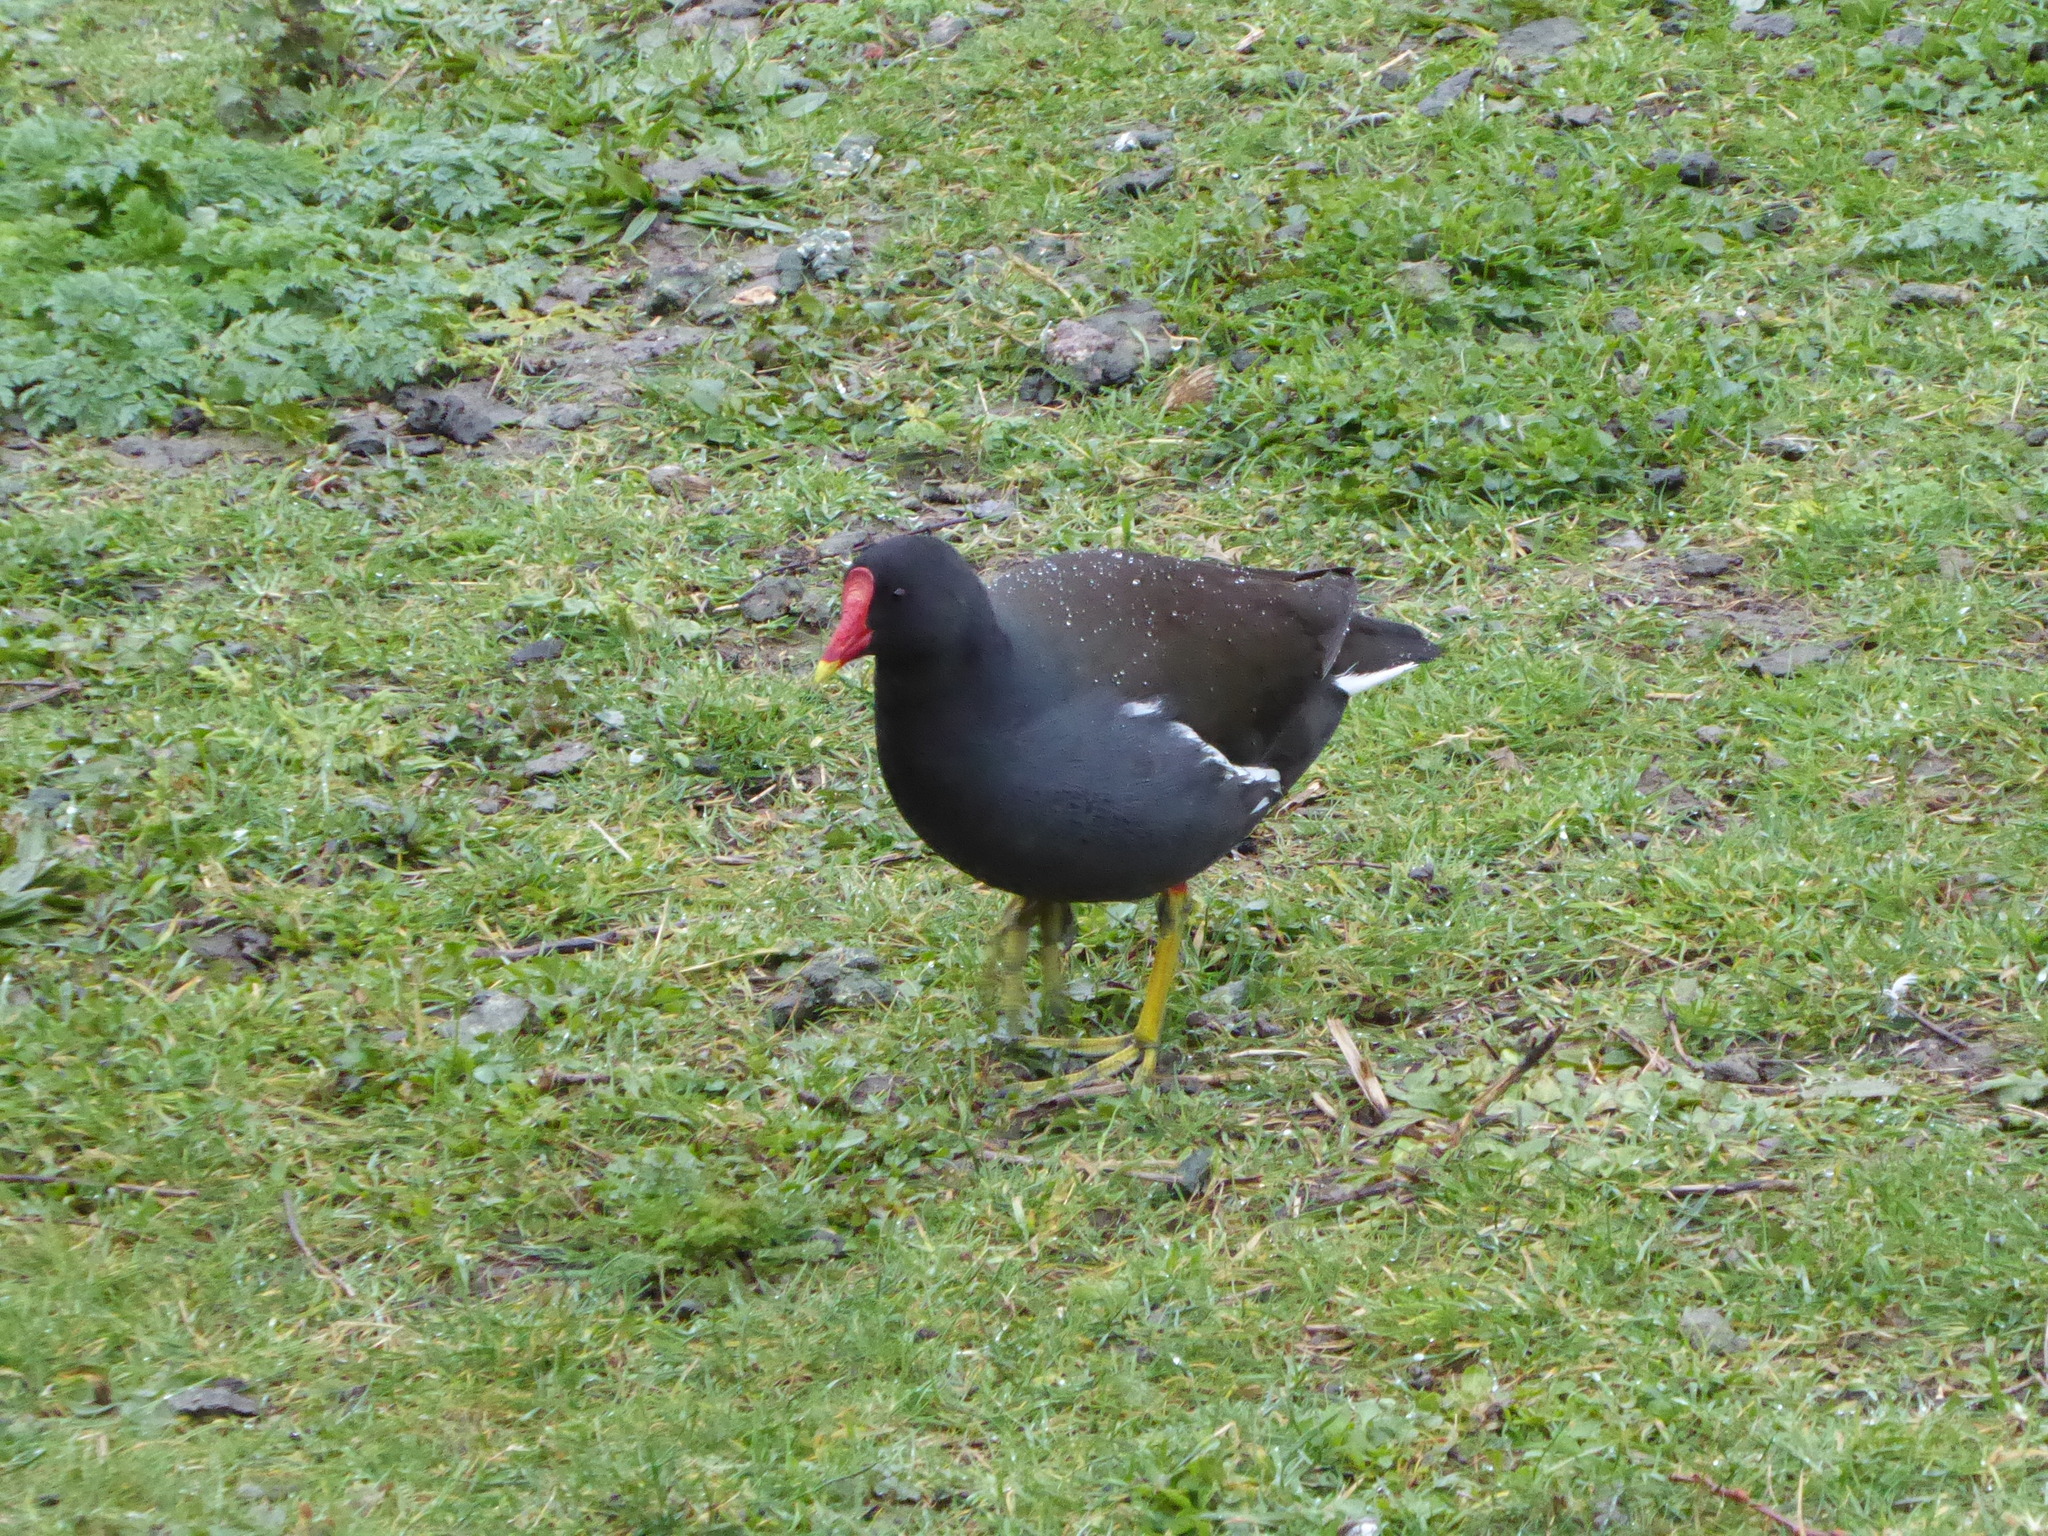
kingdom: Animalia
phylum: Chordata
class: Aves
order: Gruiformes
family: Rallidae
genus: Gallinula
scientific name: Gallinula chloropus
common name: Common moorhen
